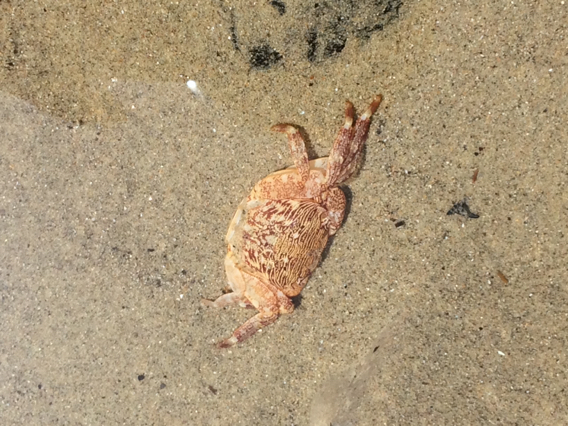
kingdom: Animalia
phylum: Arthropoda
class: Malacostraca
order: Decapoda
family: Grapsidae
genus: Pachygrapsus
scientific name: Pachygrapsus crassipes
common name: Striped shore crab
